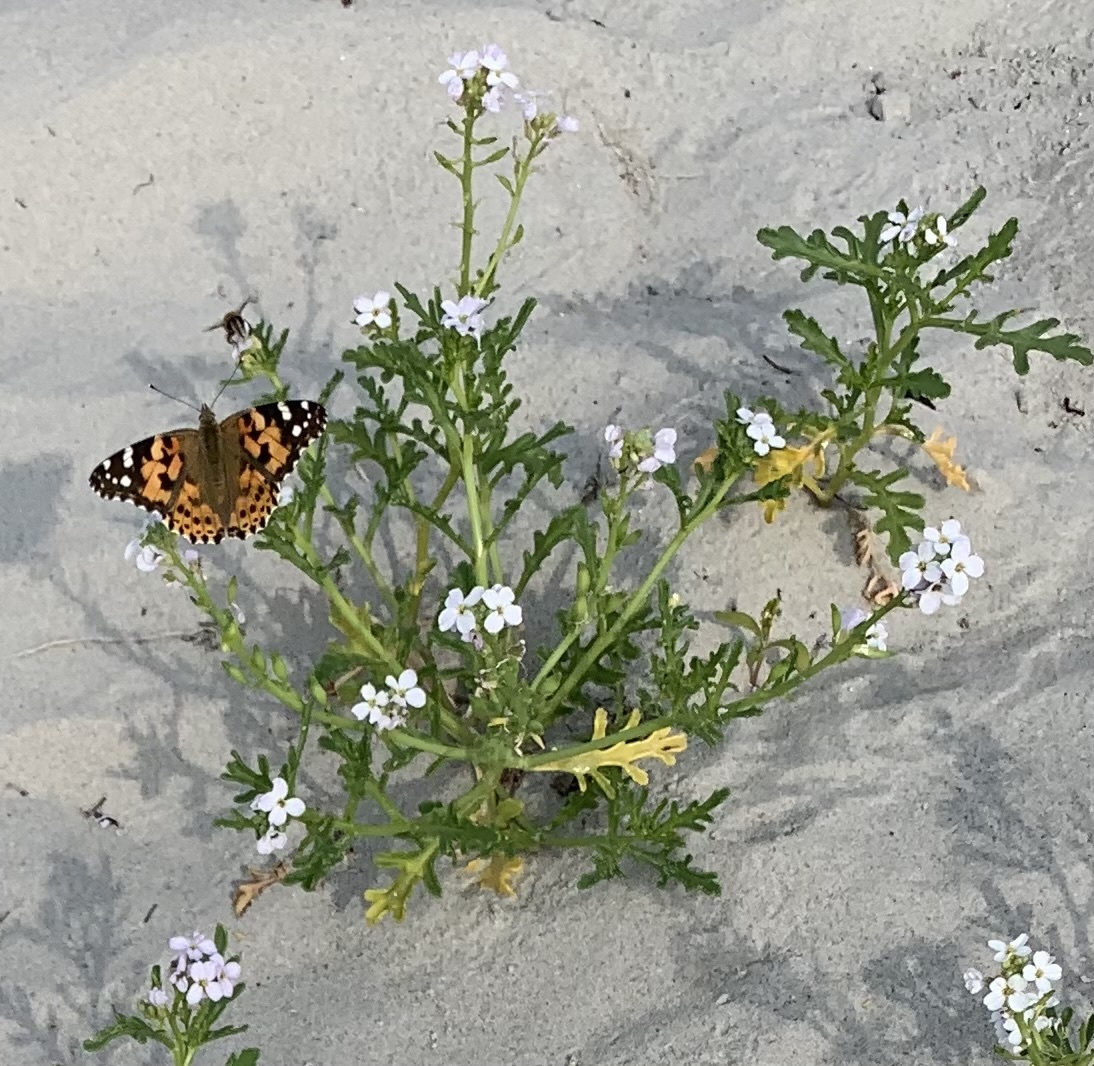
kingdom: Animalia
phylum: Arthropoda
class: Insecta
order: Lepidoptera
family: Nymphalidae
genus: Vanessa
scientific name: Vanessa cardui
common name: Painted lady
